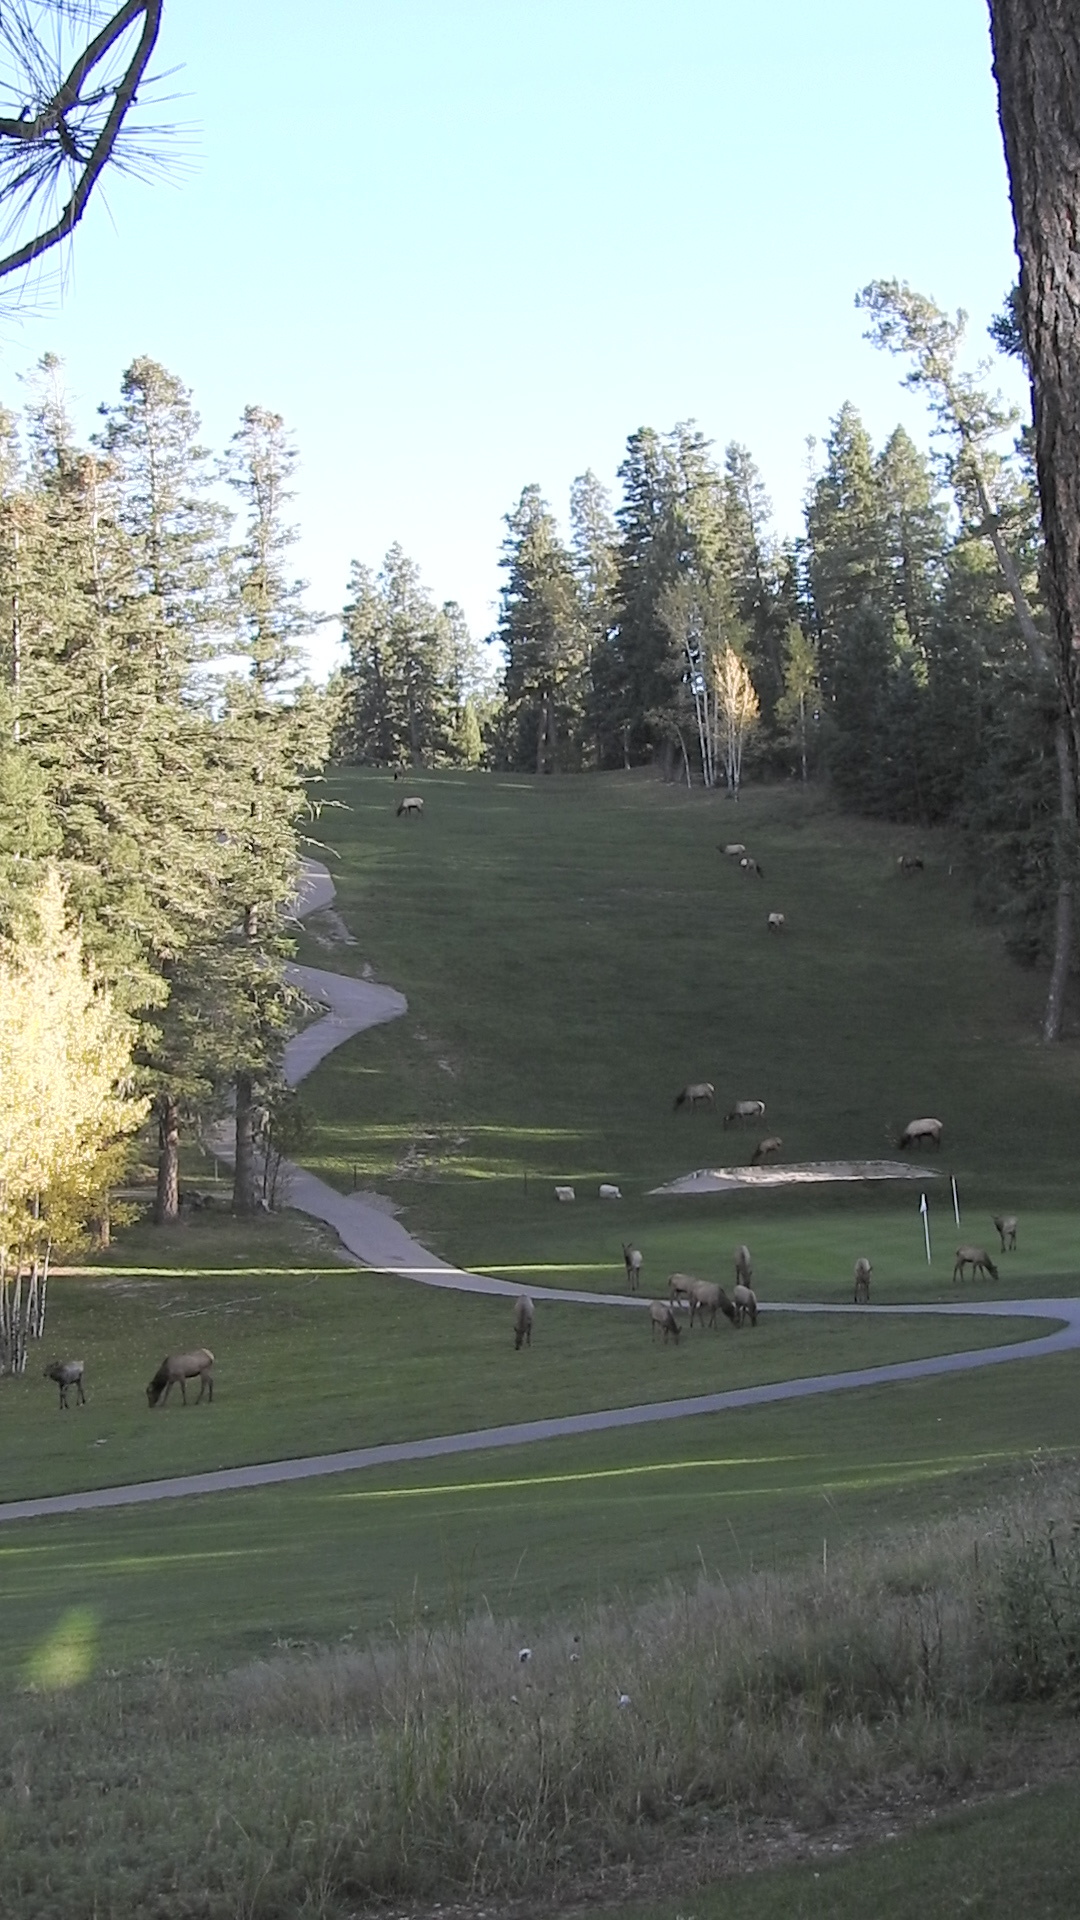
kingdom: Animalia
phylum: Chordata
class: Mammalia
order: Artiodactyla
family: Cervidae
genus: Cervus
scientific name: Cervus elaphus
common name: Red deer
